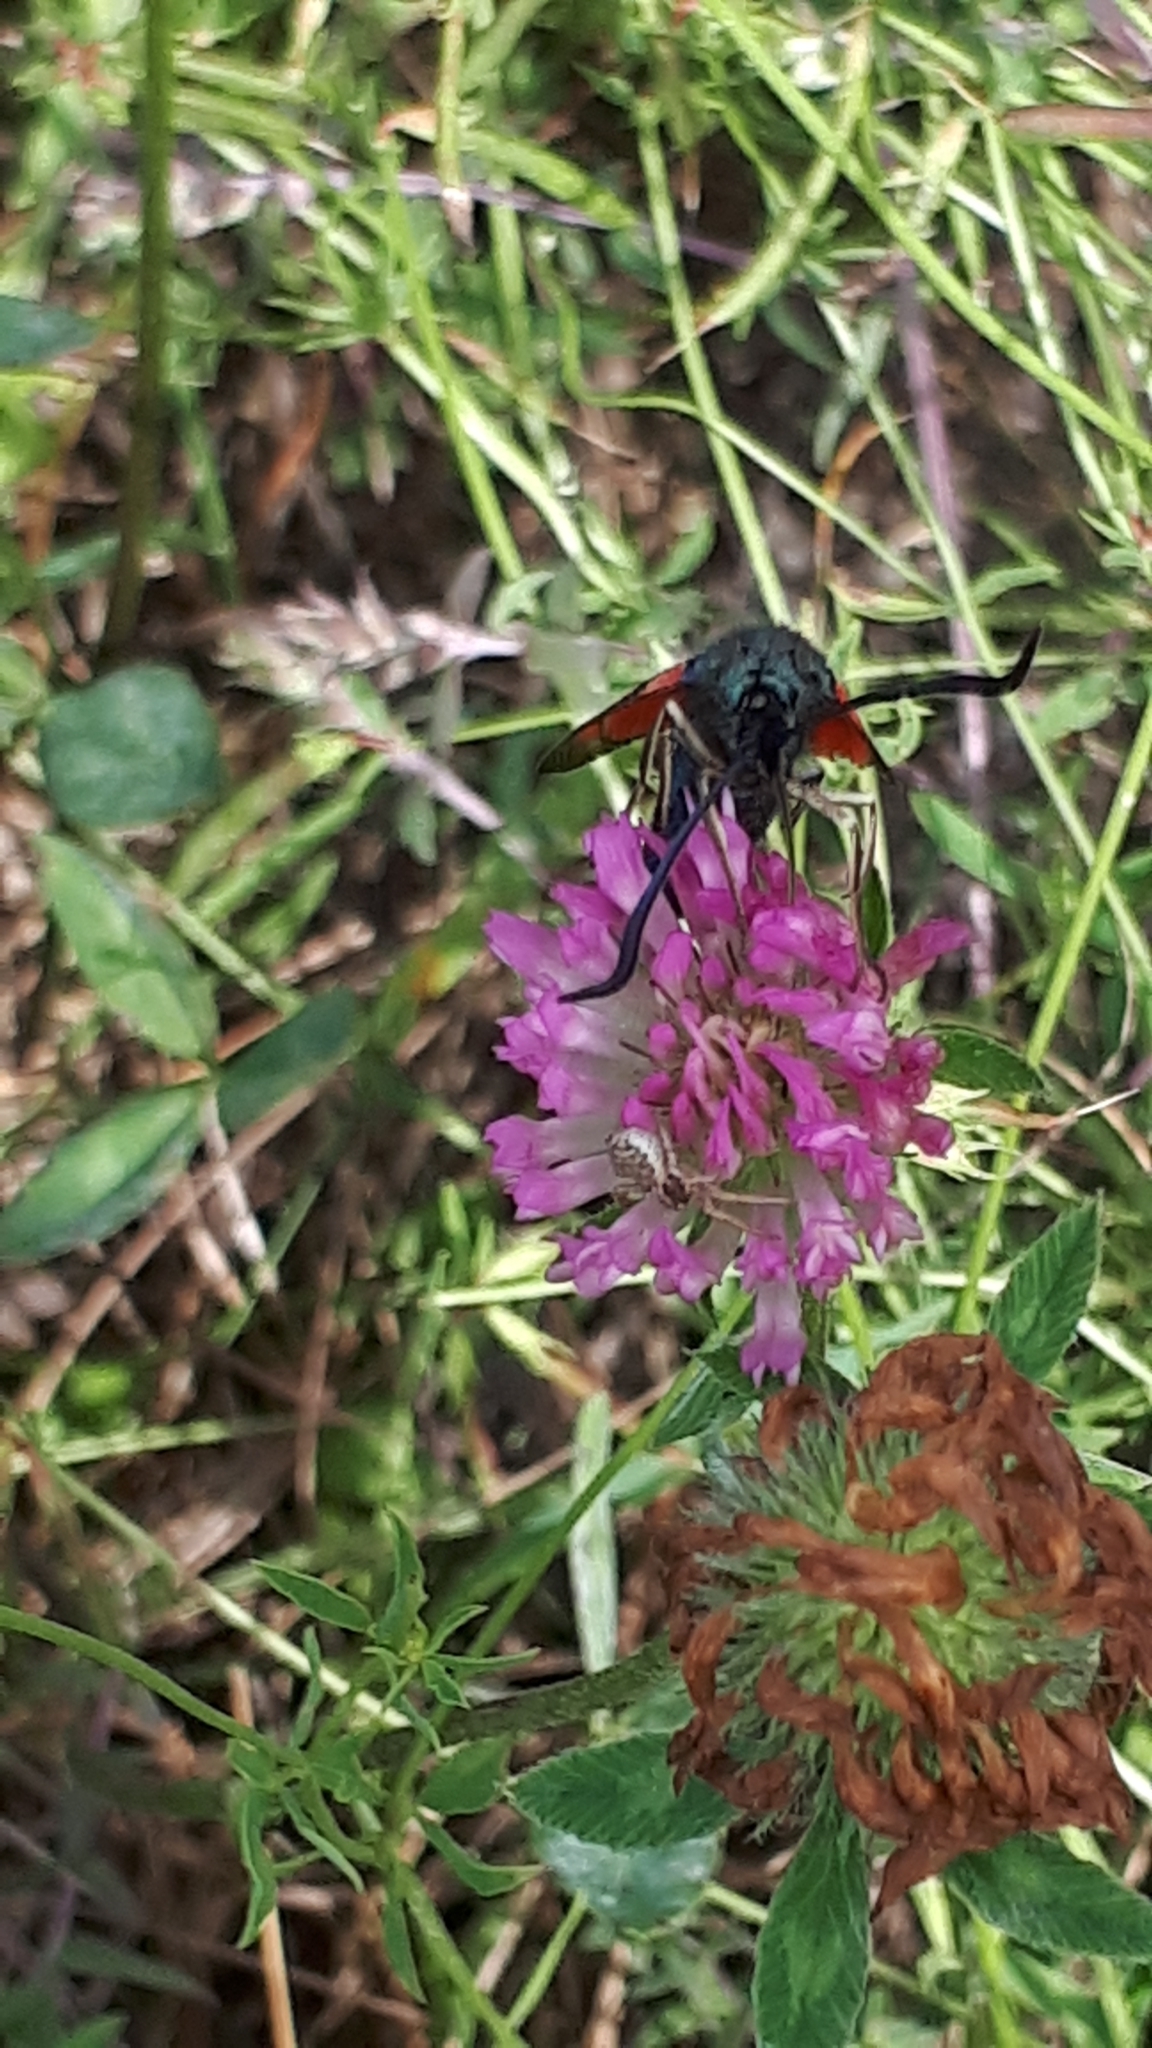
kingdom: Animalia
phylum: Arthropoda
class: Insecta
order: Lepidoptera
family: Zygaenidae
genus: Zygaena
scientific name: Zygaena filipendulae
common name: Six-spot burnet
